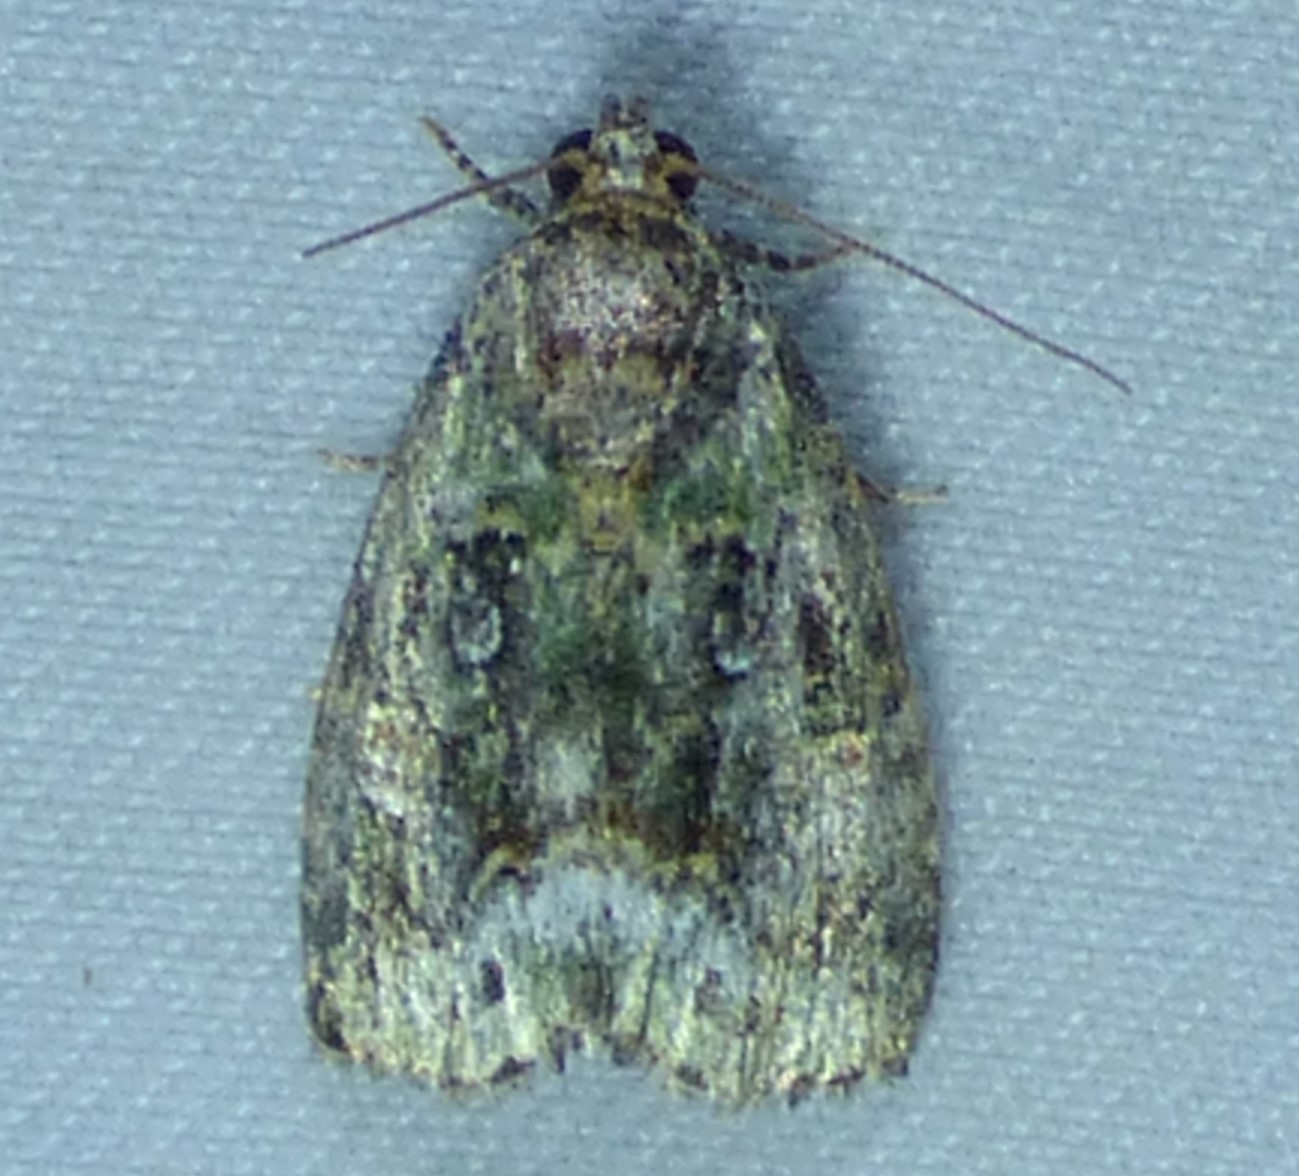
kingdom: Animalia
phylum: Arthropoda
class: Insecta
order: Lepidoptera
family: Noctuidae
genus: Lithacodia
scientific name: Lithacodia musta
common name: Small mossy glyph
